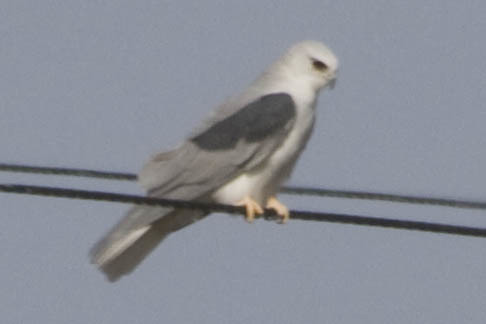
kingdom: Animalia
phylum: Chordata
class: Aves
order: Accipitriformes
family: Accipitridae
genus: Elanus
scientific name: Elanus leucurus
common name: White-tailed kite
